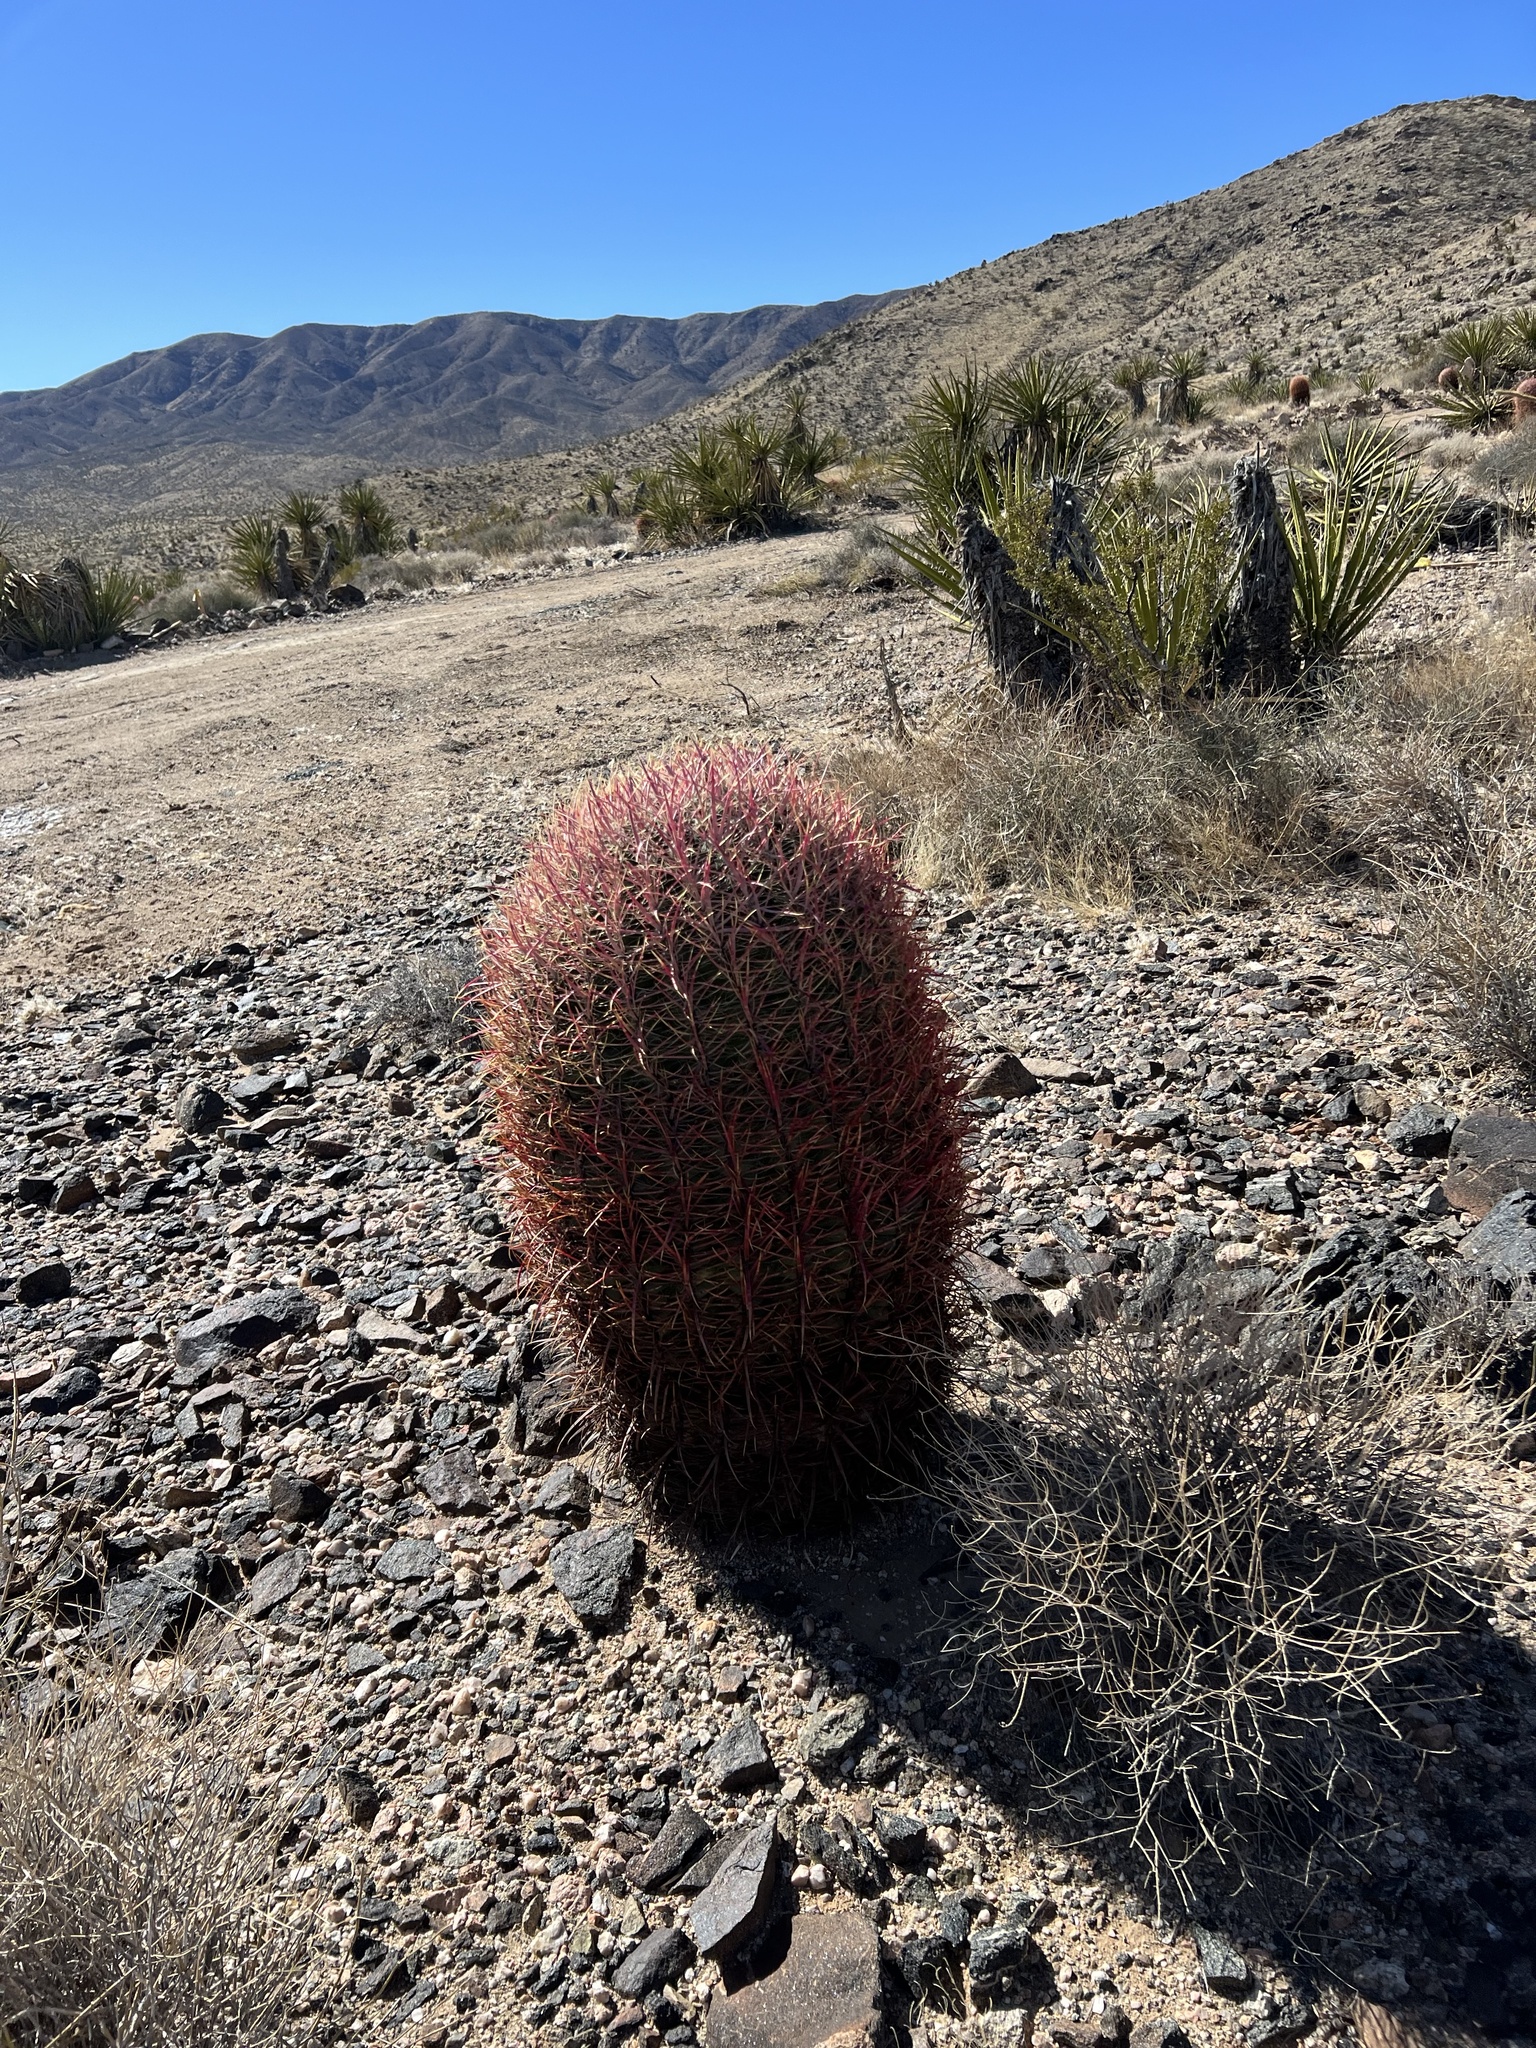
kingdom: Plantae
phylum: Tracheophyta
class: Magnoliopsida
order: Caryophyllales
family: Cactaceae
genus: Ferocactus
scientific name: Ferocactus cylindraceus
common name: California barrel cactus
